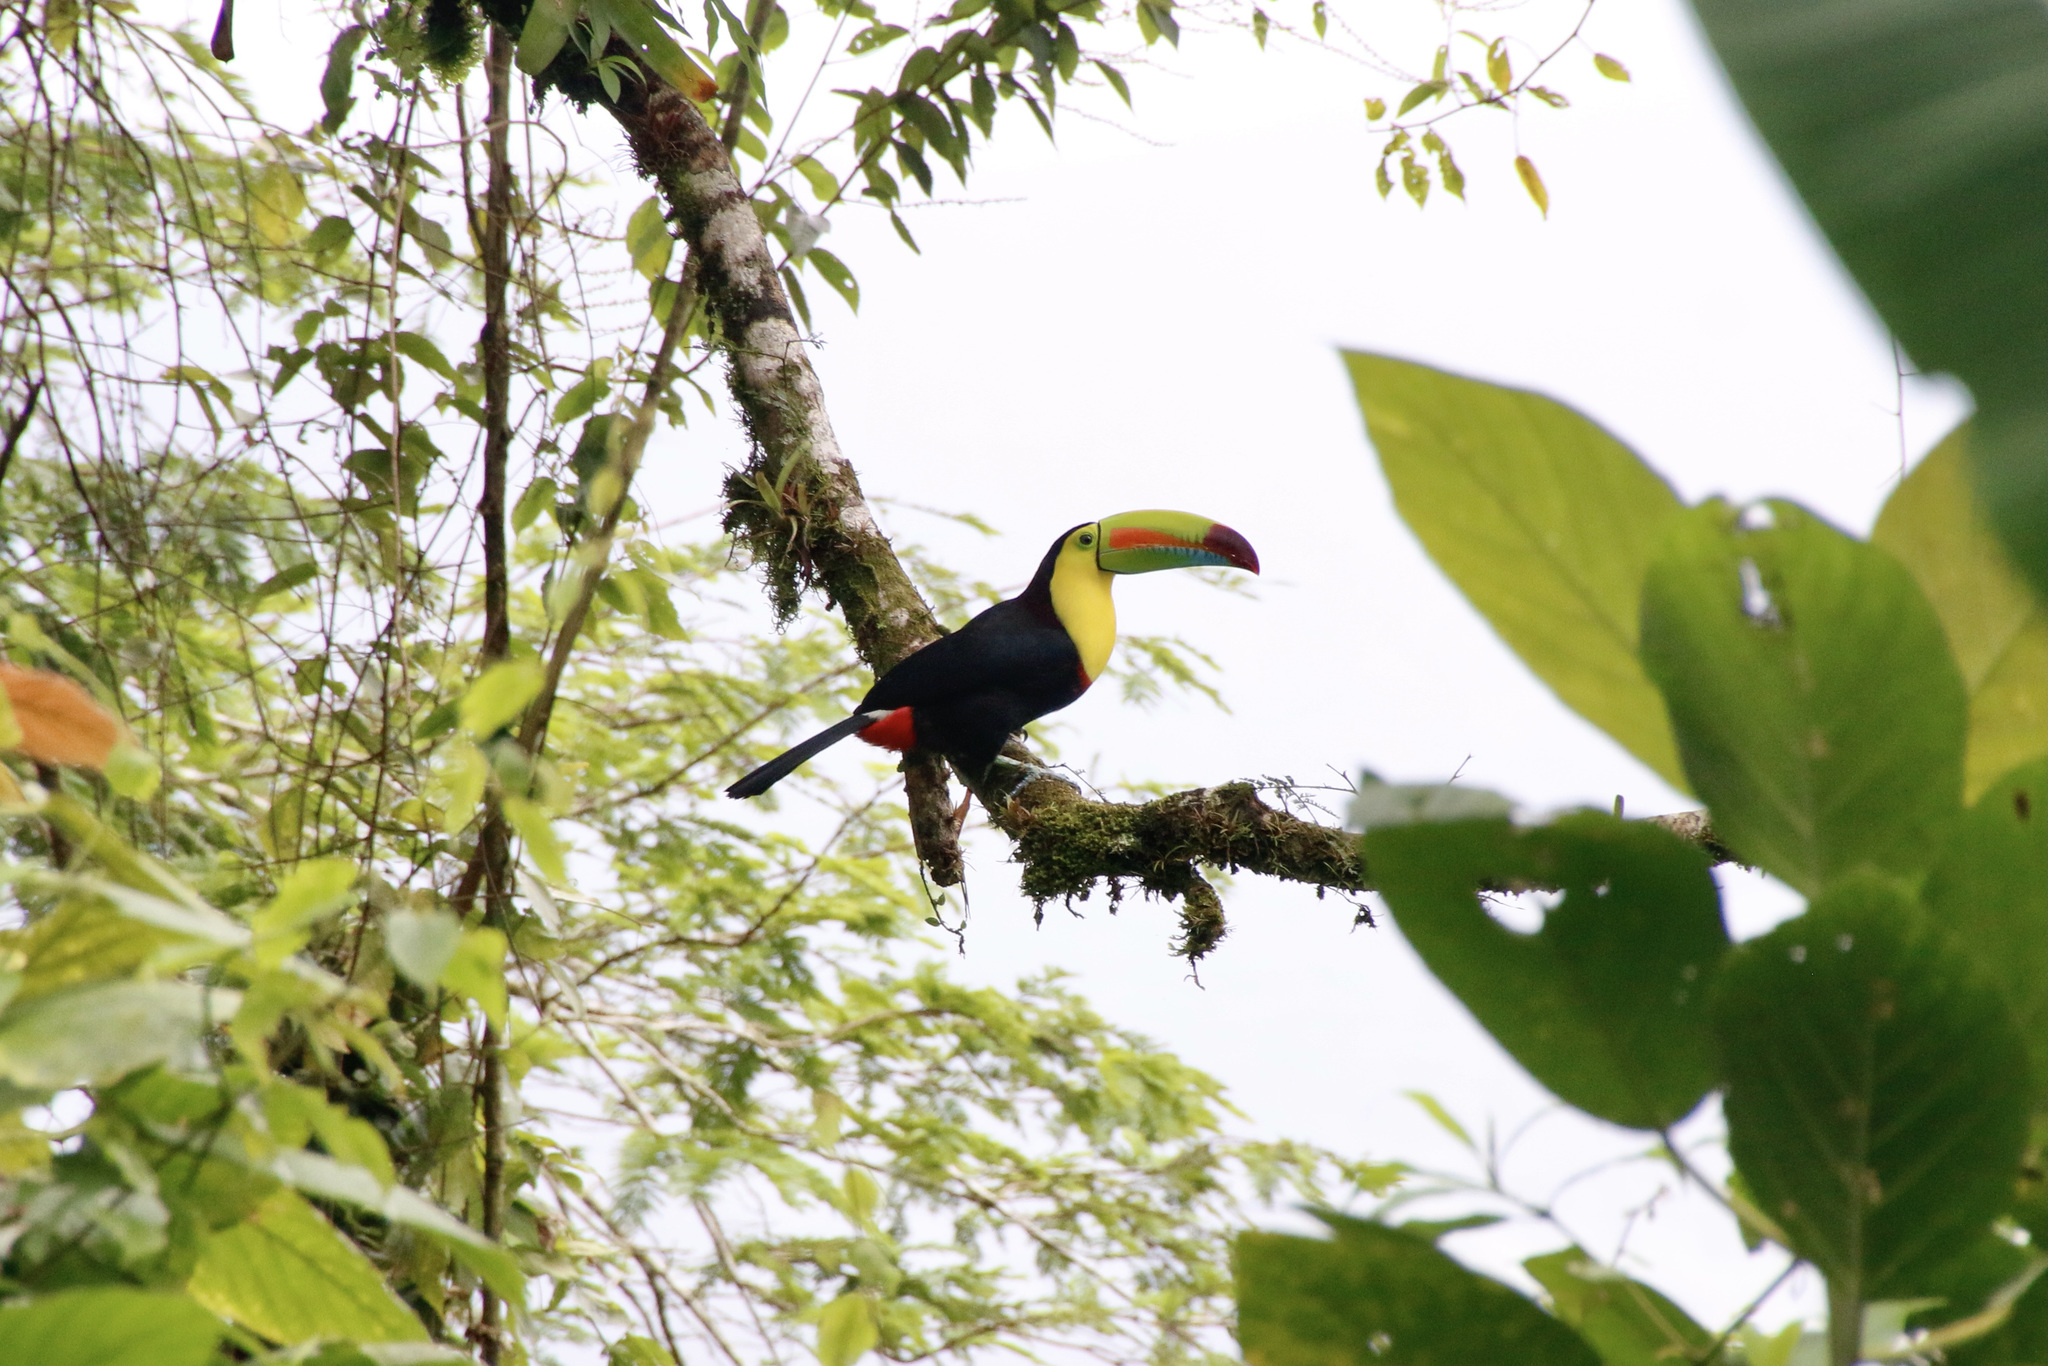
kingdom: Animalia
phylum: Chordata
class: Aves
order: Piciformes
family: Ramphastidae
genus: Ramphastos
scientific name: Ramphastos sulfuratus
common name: Keel-billed toucan
